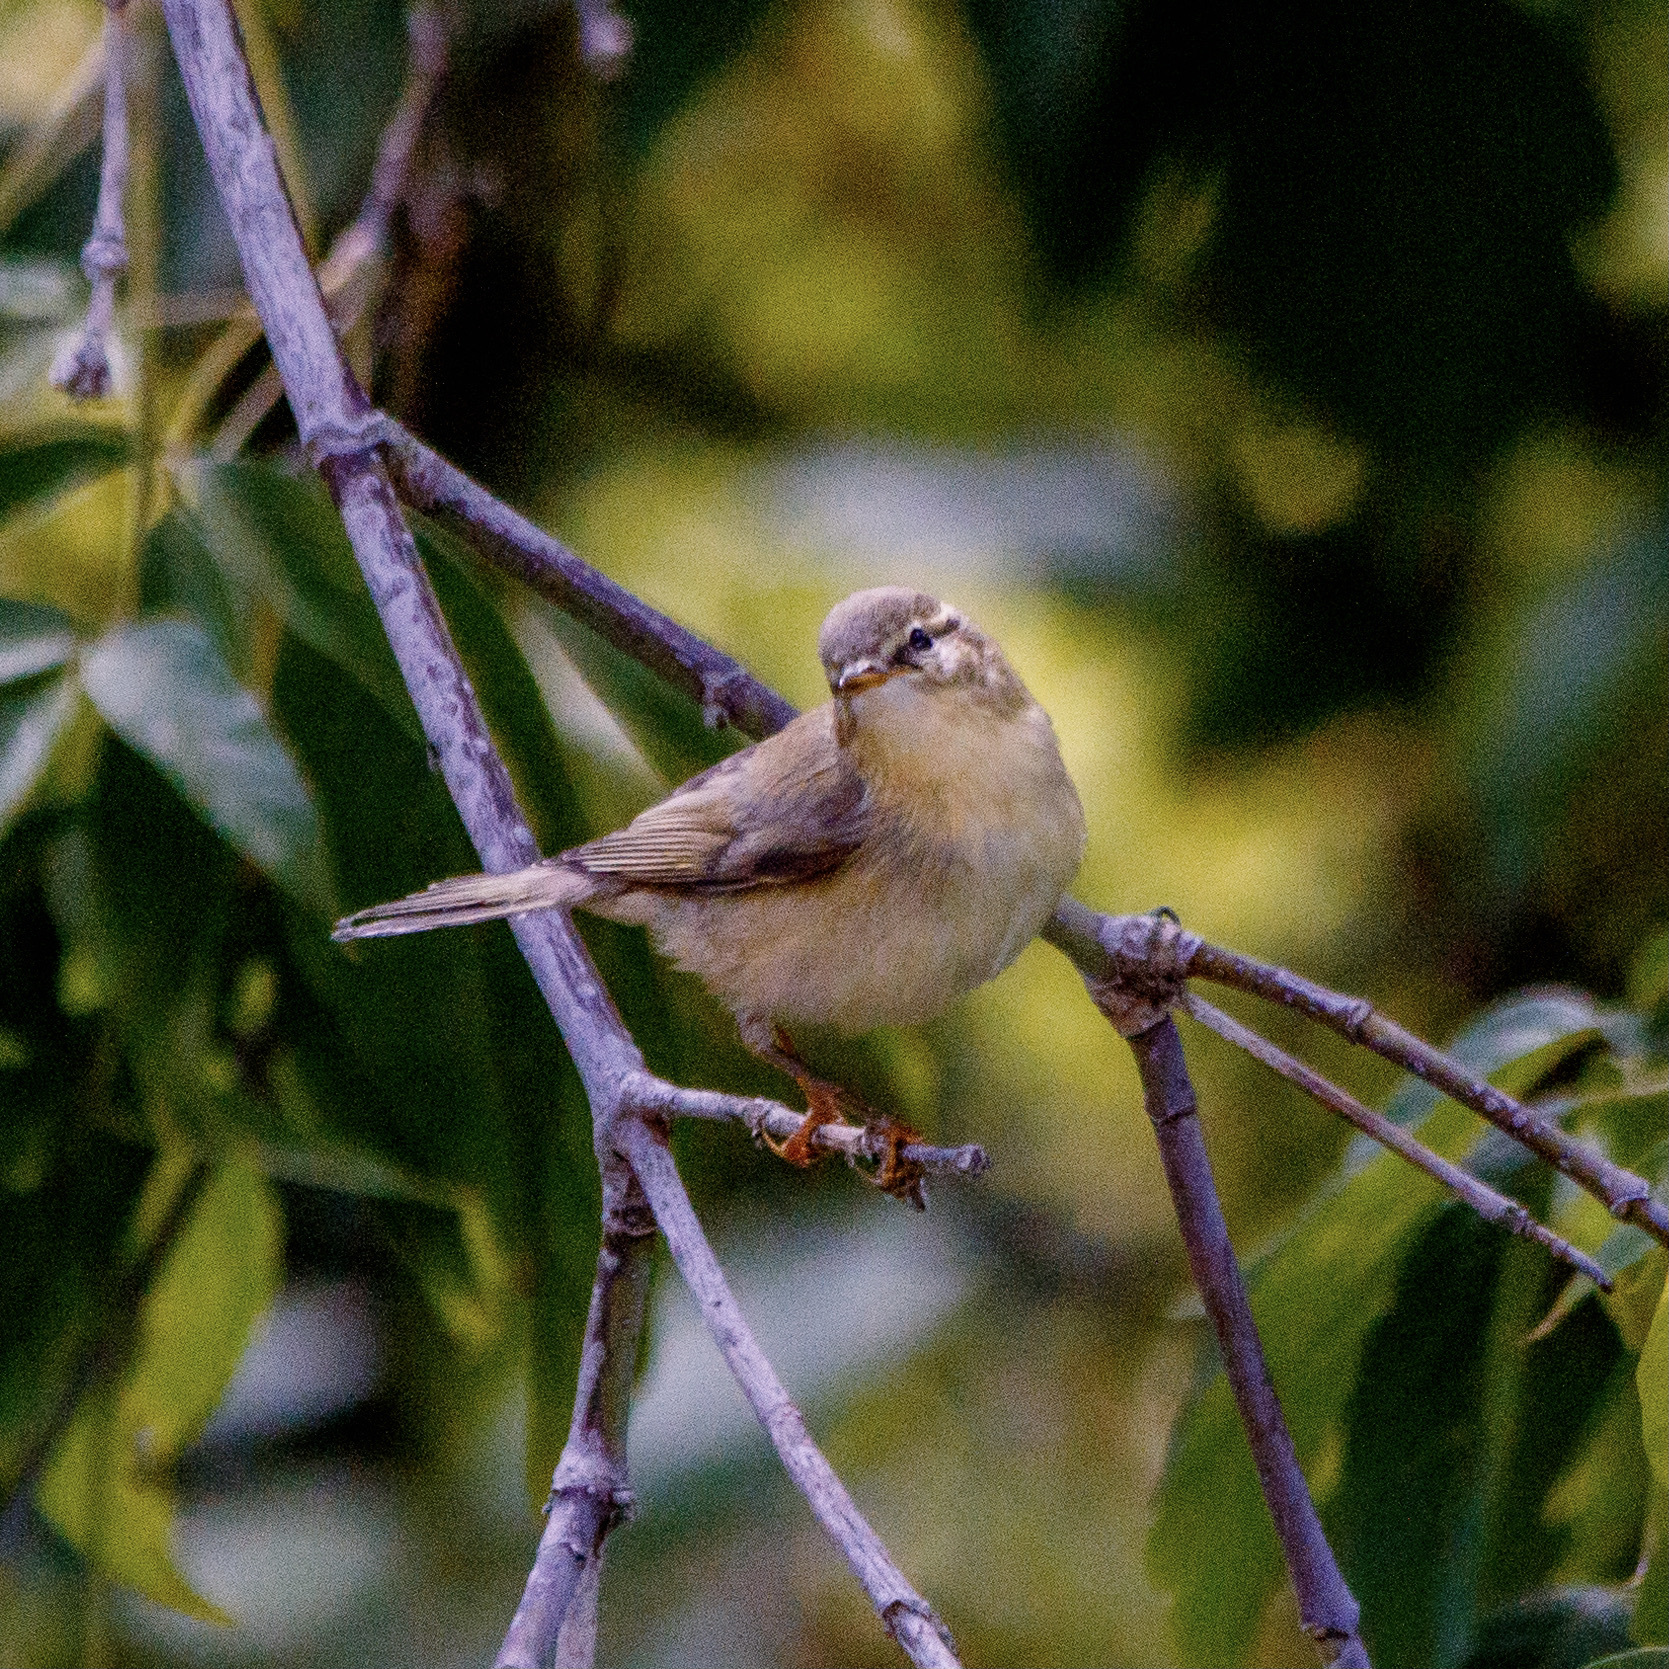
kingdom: Animalia
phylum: Chordata
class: Aves
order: Passeriformes
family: Phylloscopidae
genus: Phylloscopus
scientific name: Phylloscopus trochilus
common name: Willow warbler
